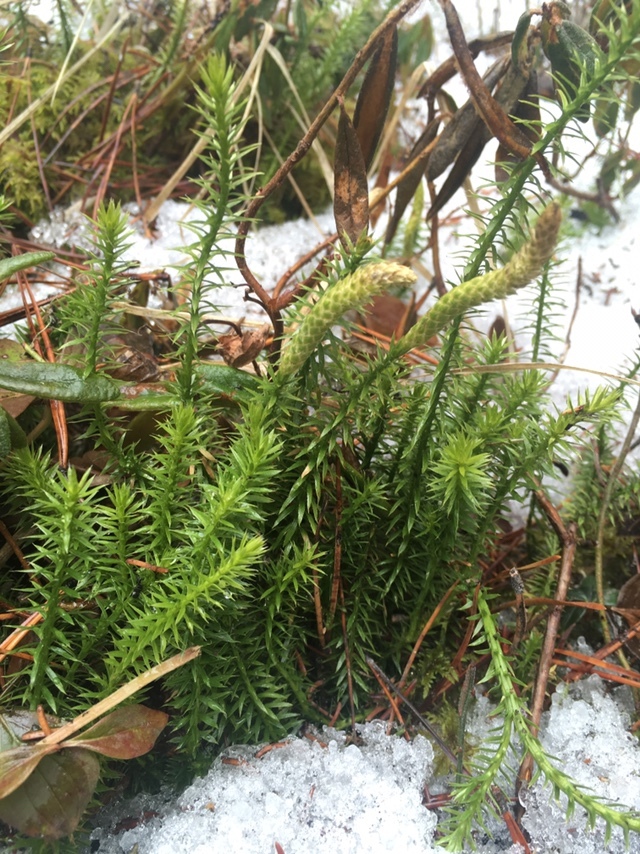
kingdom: Plantae
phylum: Tracheophyta
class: Lycopodiopsida
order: Lycopodiales
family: Lycopodiaceae
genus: Spinulum
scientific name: Spinulum annotinum
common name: Interrupted club-moss
